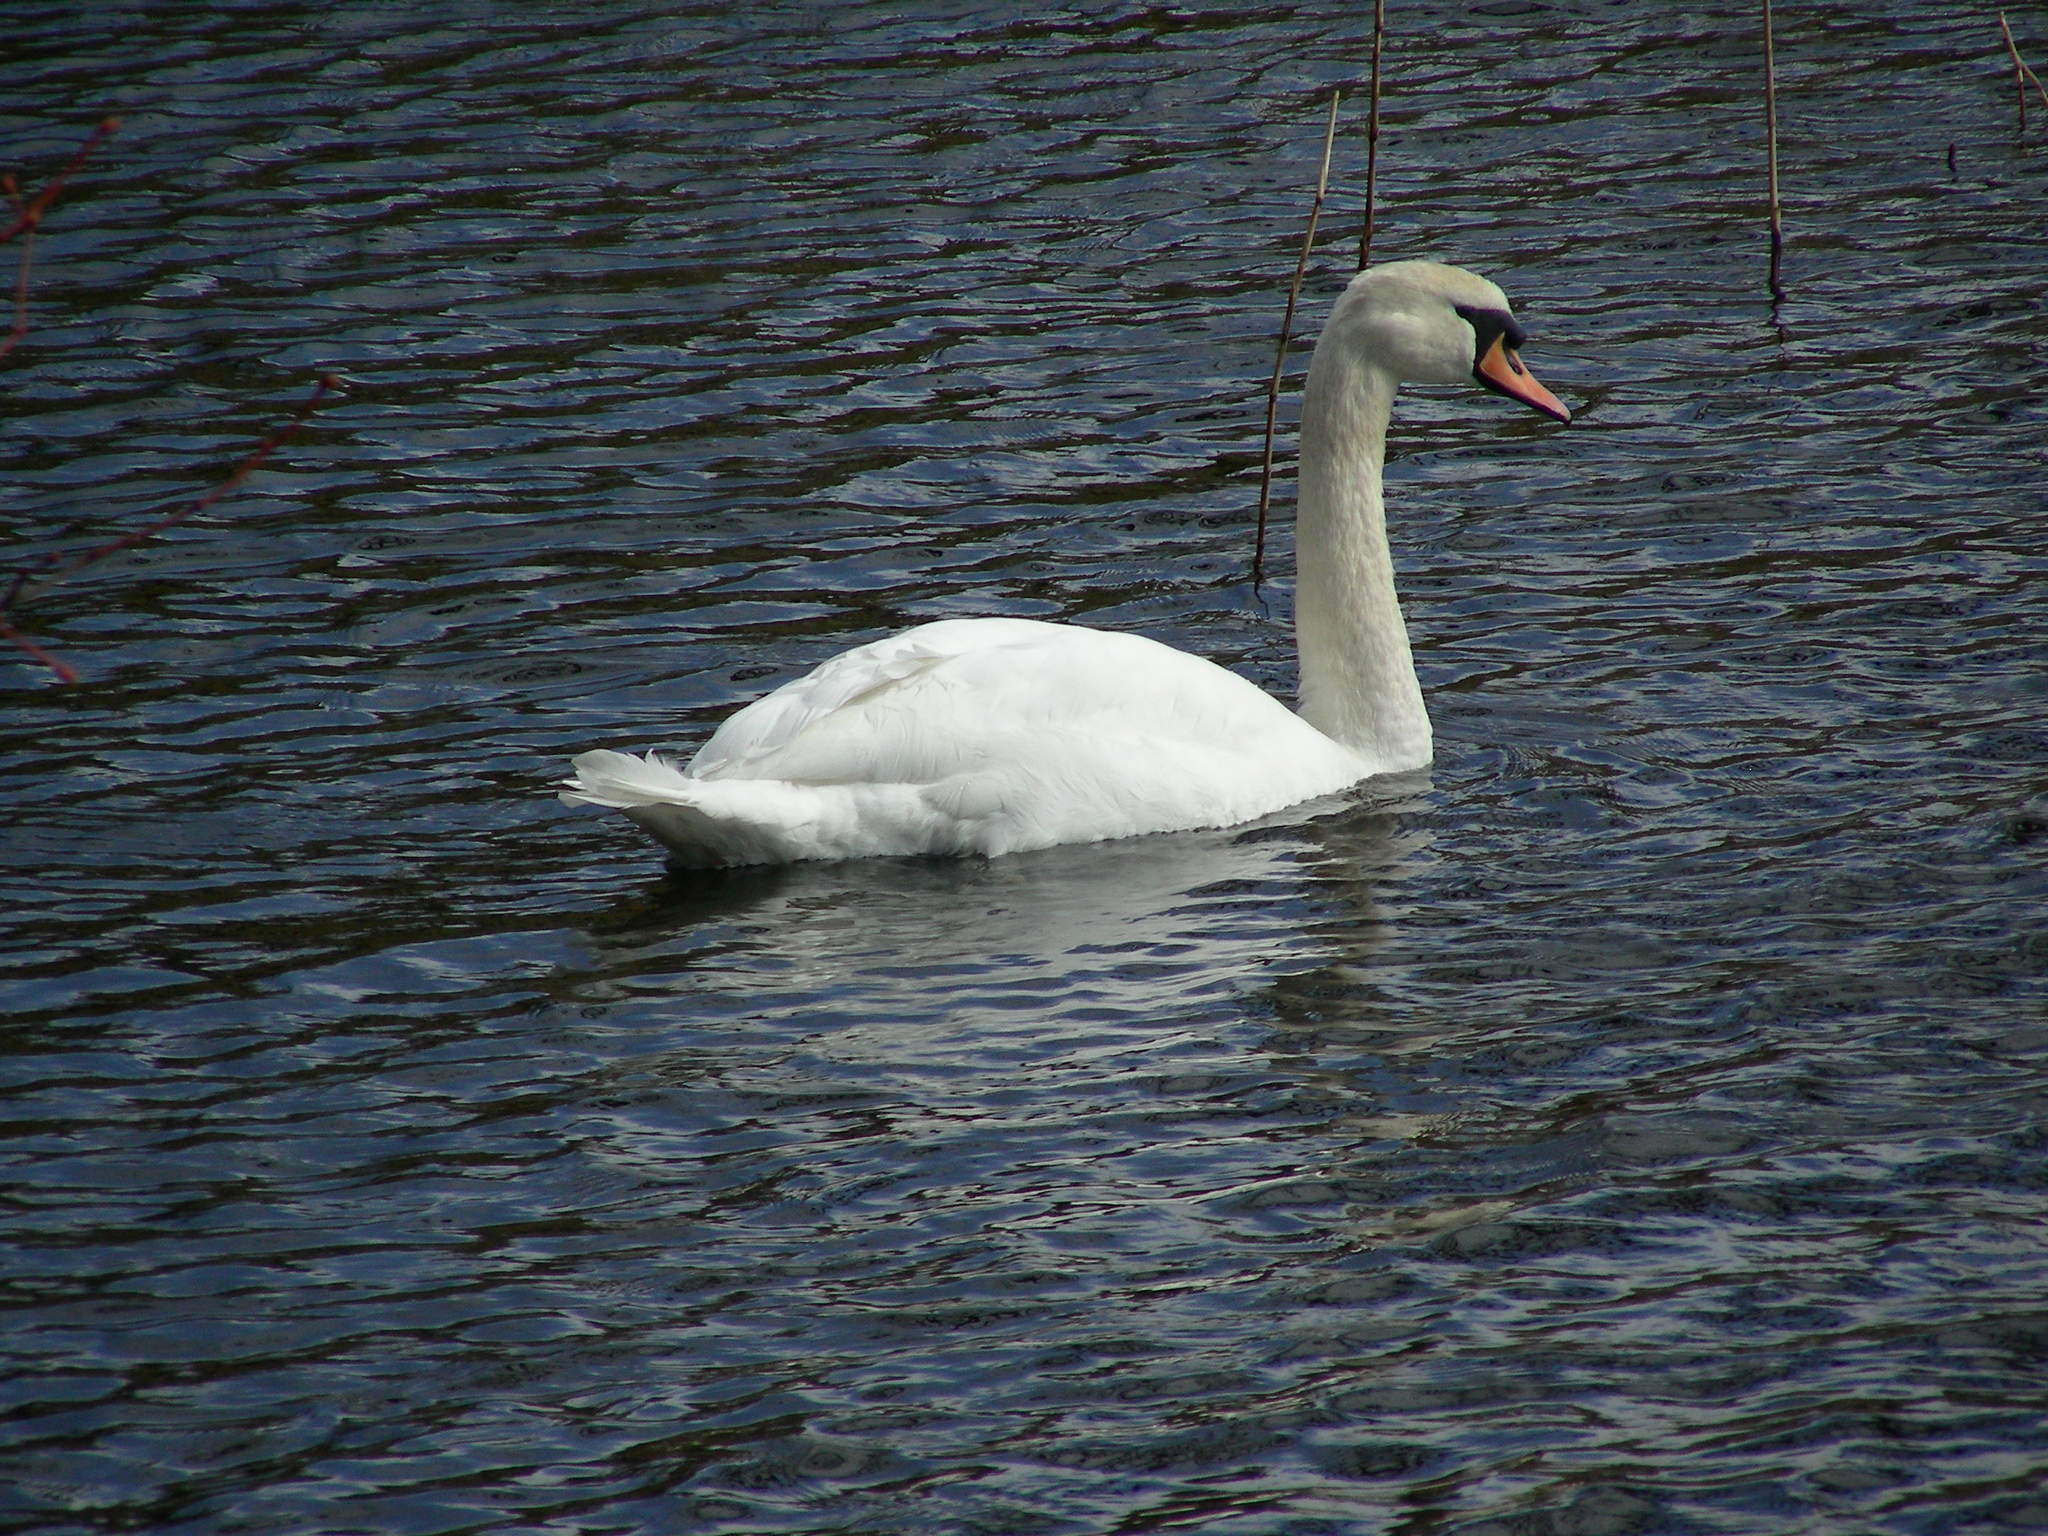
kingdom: Animalia
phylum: Chordata
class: Aves
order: Anseriformes
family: Anatidae
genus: Cygnus
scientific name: Cygnus olor
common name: Mute swan
